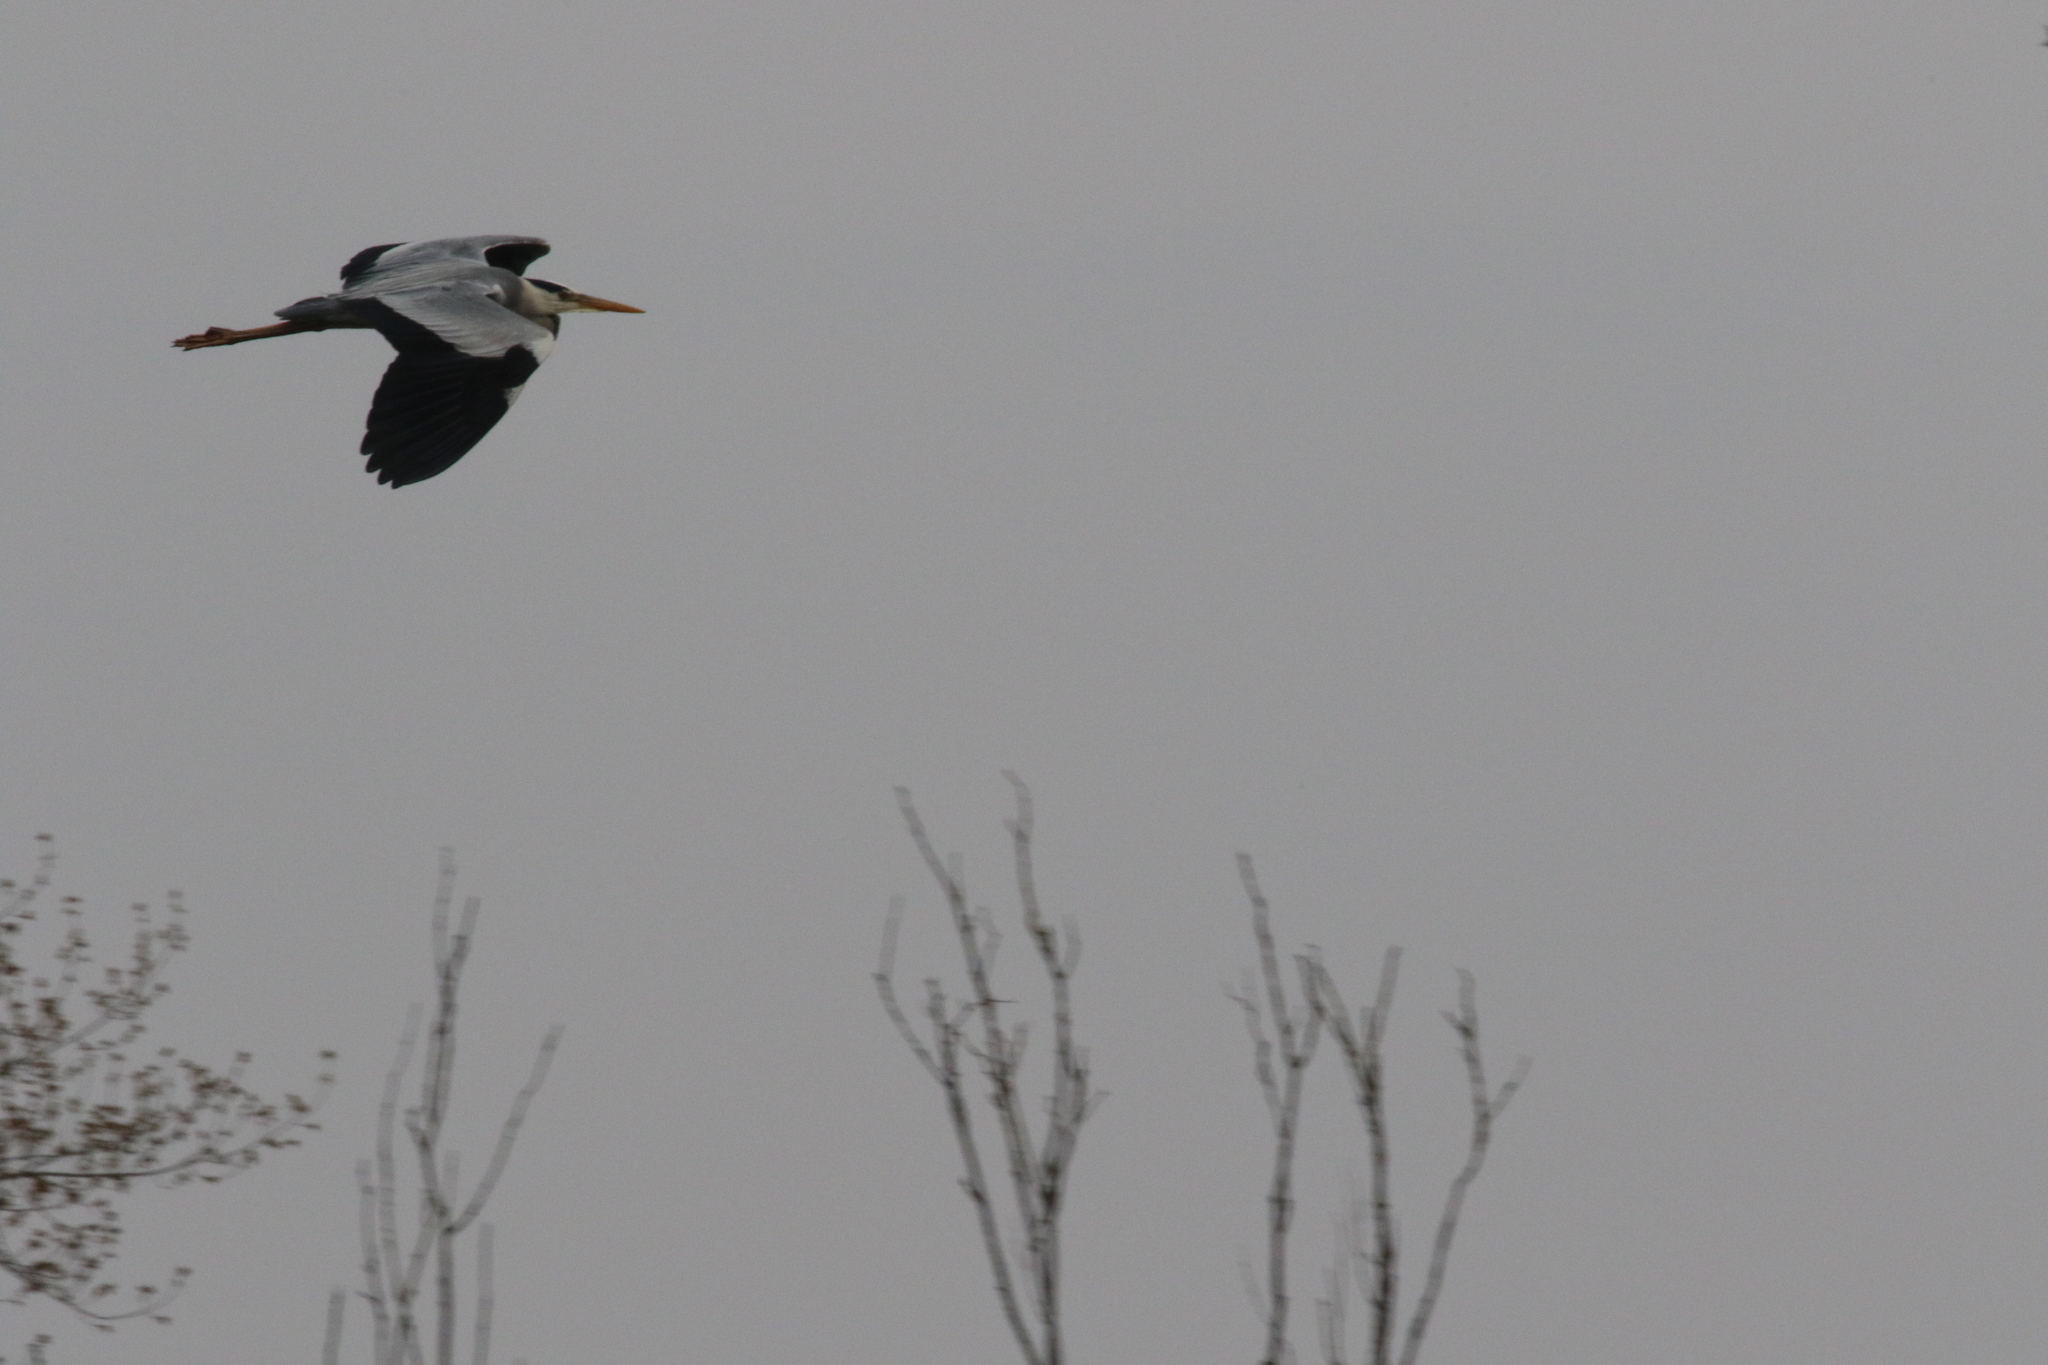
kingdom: Animalia
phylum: Chordata
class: Aves
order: Pelecaniformes
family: Ardeidae
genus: Ardea
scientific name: Ardea cinerea
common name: Grey heron
